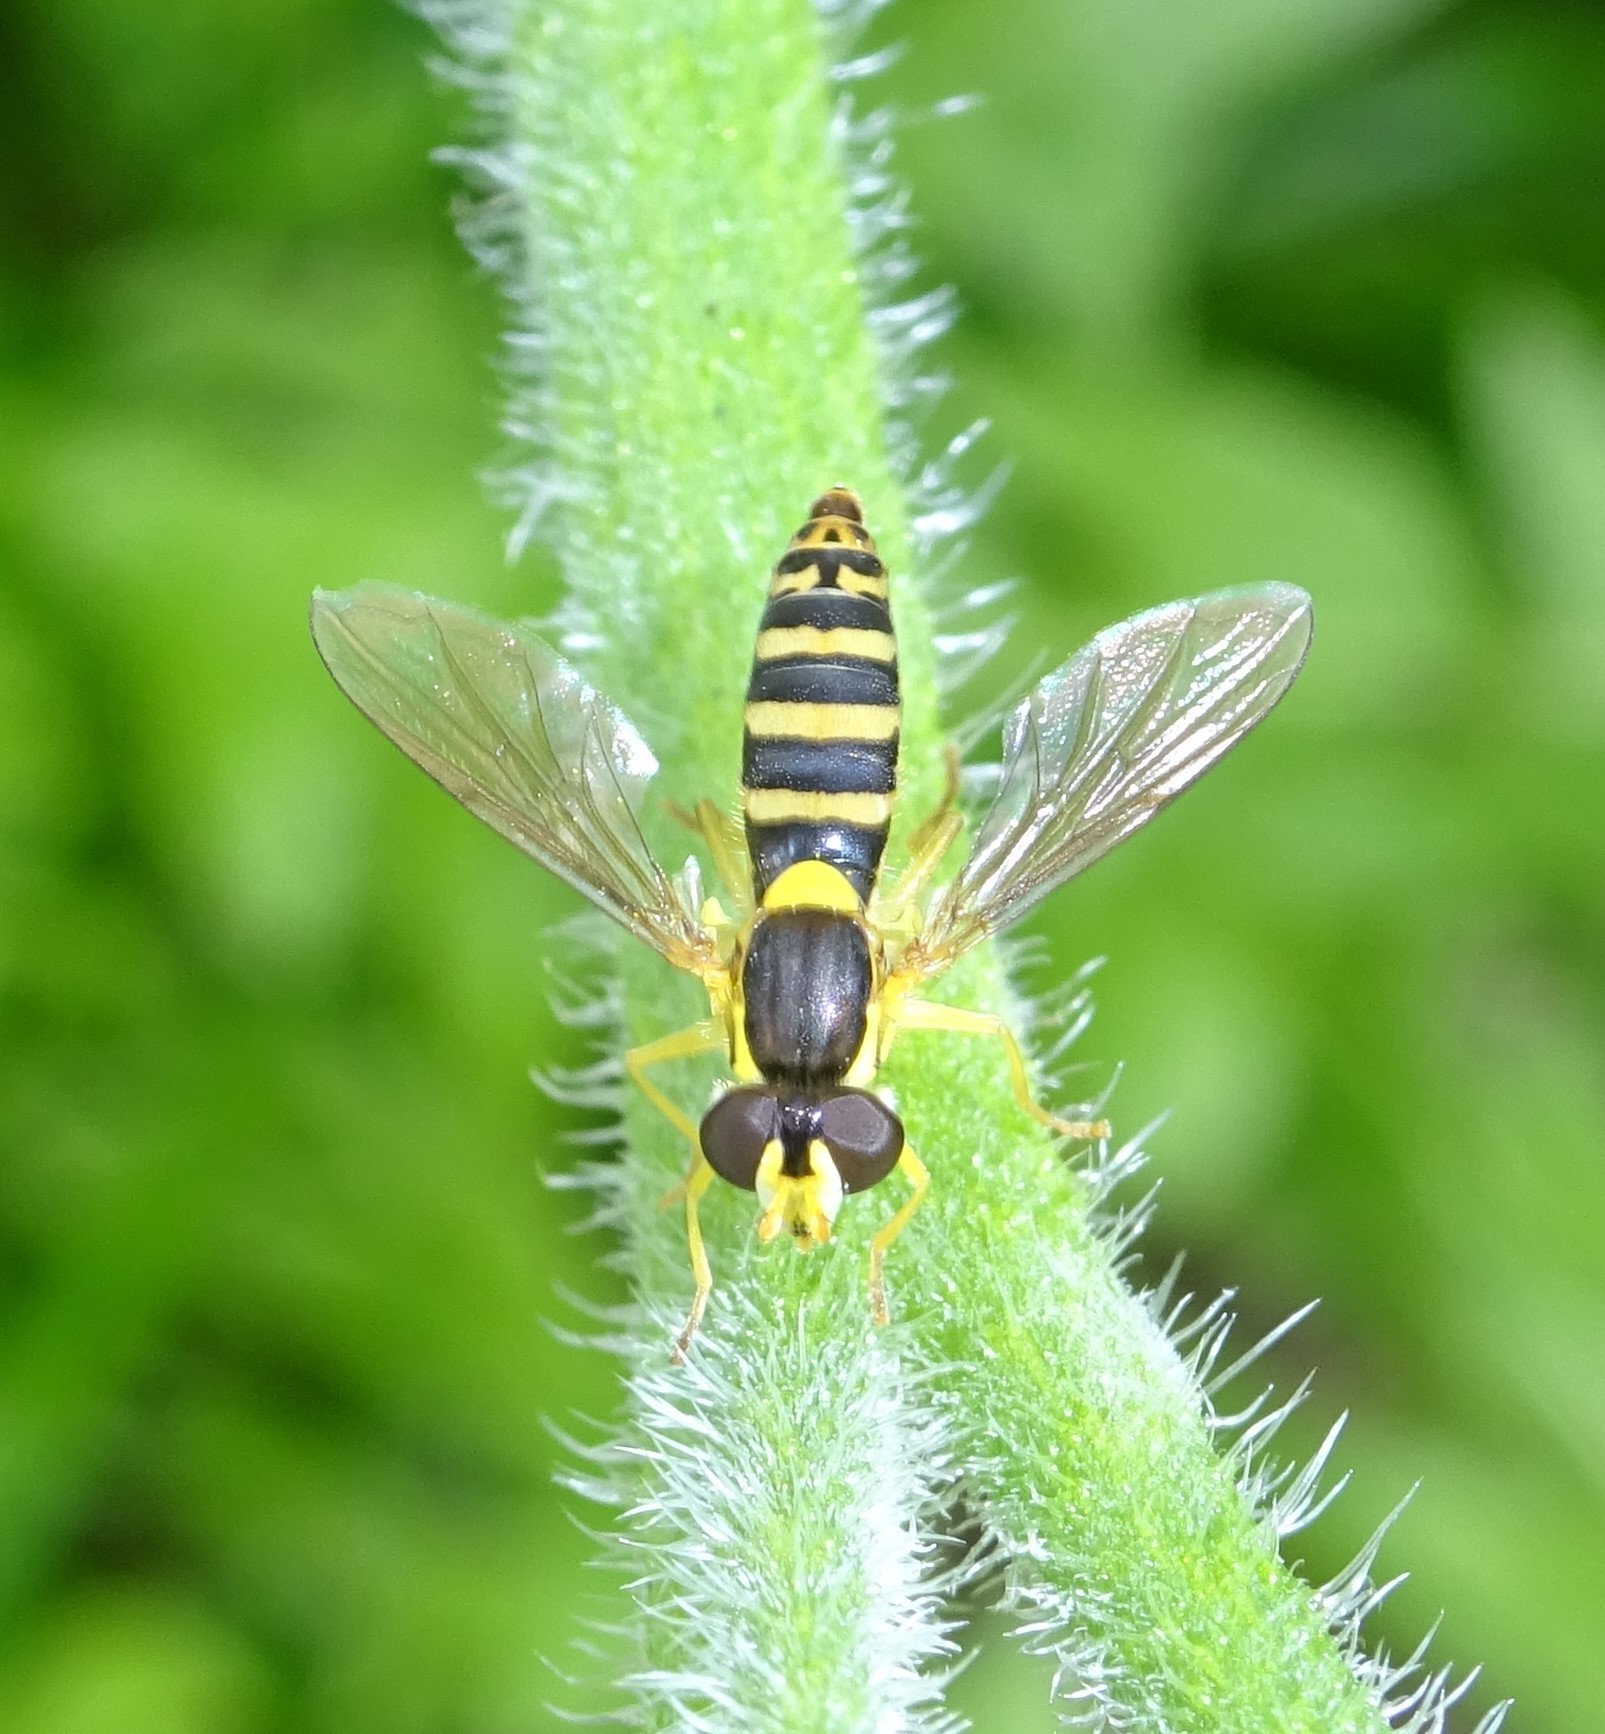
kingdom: Animalia
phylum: Arthropoda
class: Insecta
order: Diptera
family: Syrphidae
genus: Sphaerophoria
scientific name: Sphaerophoria
